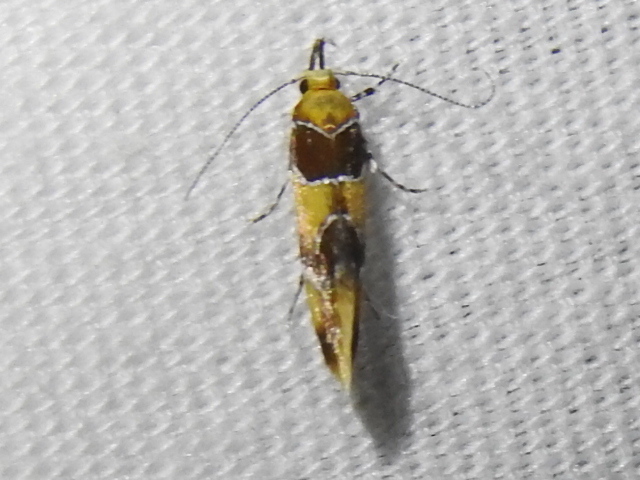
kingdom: Animalia
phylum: Arthropoda
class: Insecta
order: Lepidoptera
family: Oecophoridae
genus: Callima
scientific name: Callima argenticinctella
